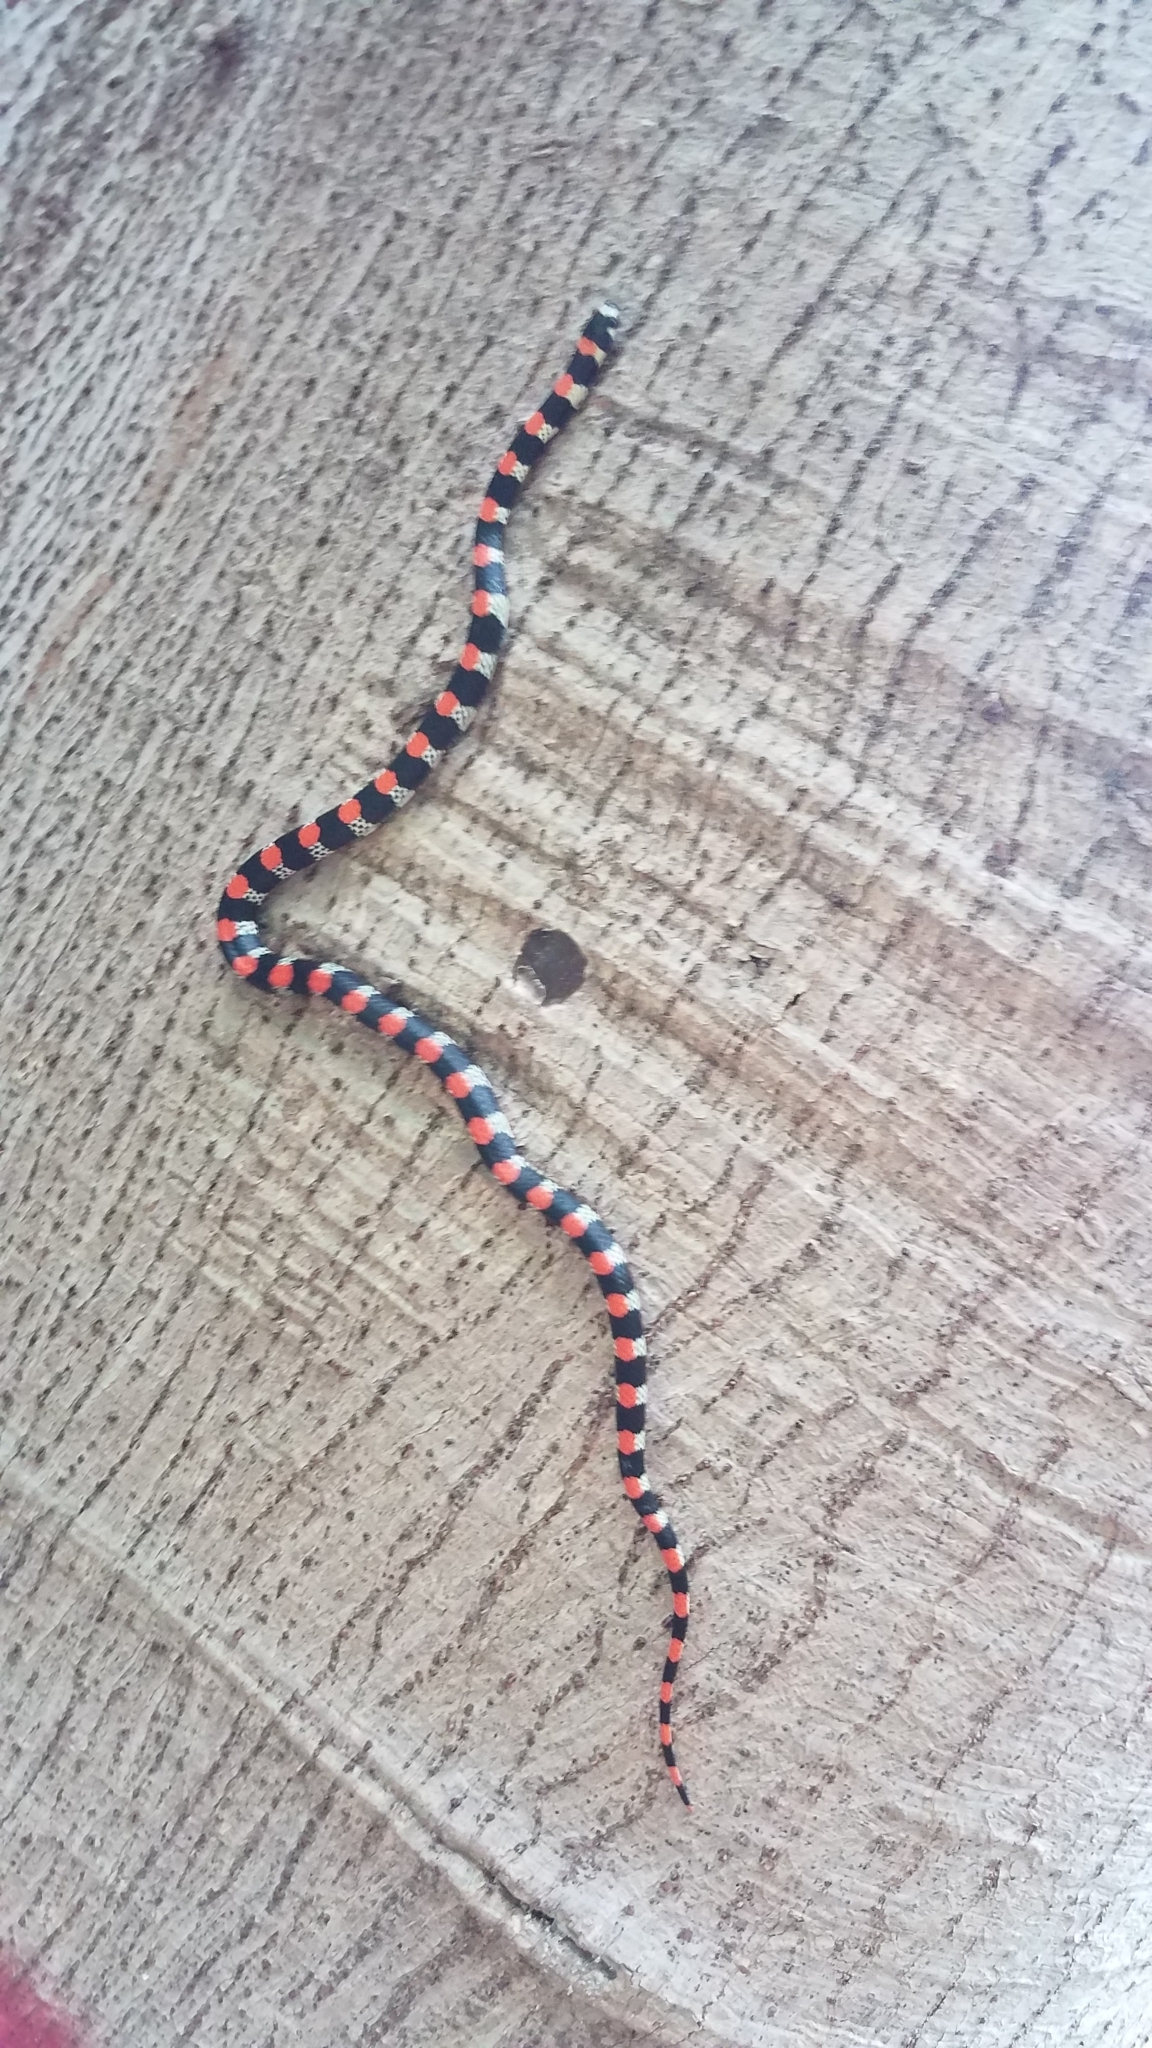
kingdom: Animalia
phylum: Chordata
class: Squamata
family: Colubridae
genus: Scolecophis
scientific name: Scolecophis atrocinctus
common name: Black-banded snake
